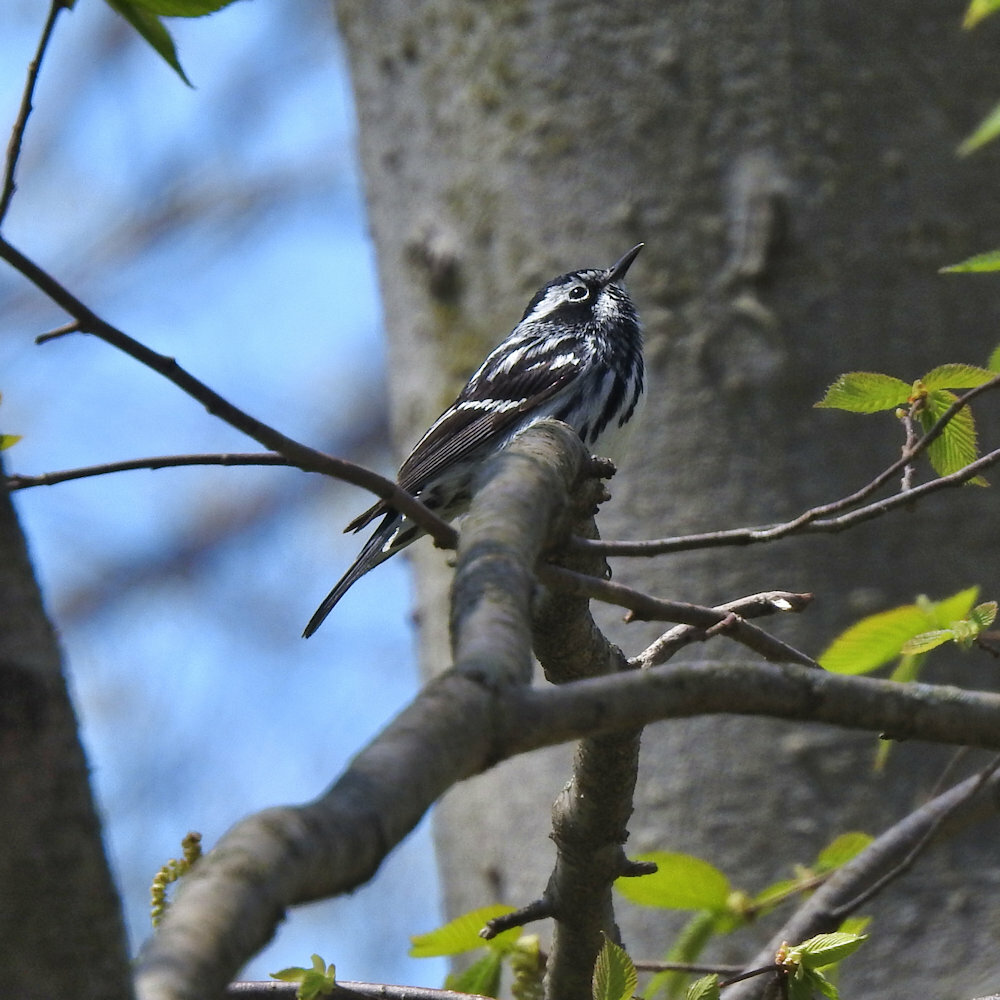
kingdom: Animalia
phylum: Chordata
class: Aves
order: Passeriformes
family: Parulidae
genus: Mniotilta
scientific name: Mniotilta varia
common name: Black-and-white warbler
